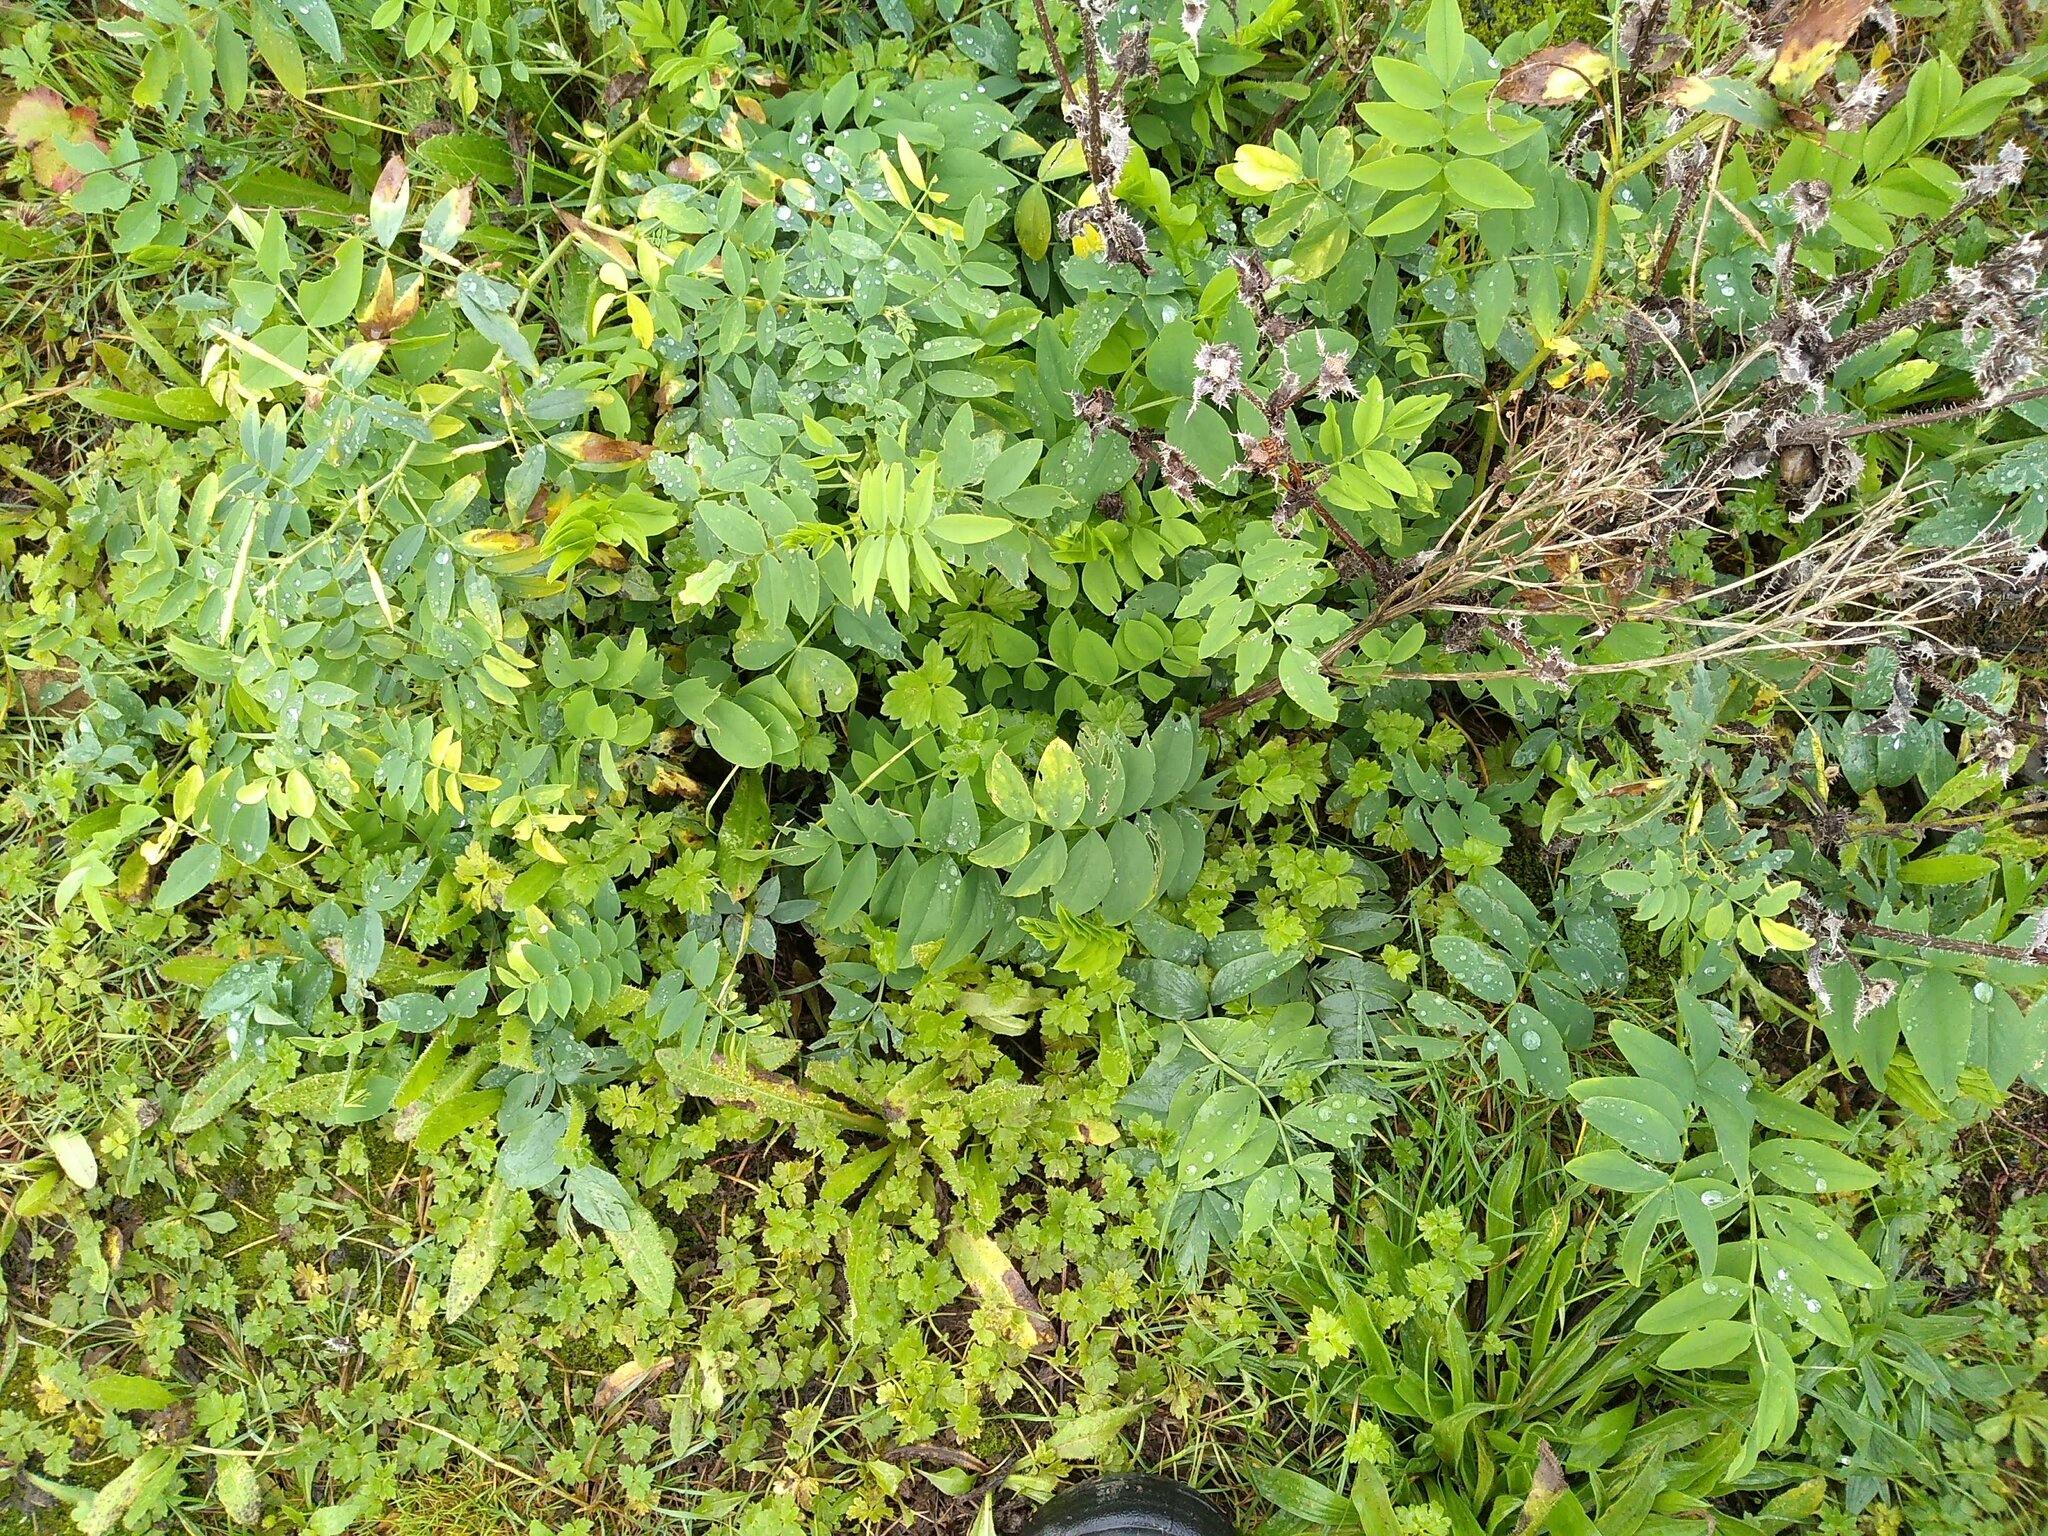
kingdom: Plantae
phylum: Tracheophyta
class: Magnoliopsida
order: Fabales
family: Fabaceae
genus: Galega
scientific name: Galega officinalis
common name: Goat's-rue
